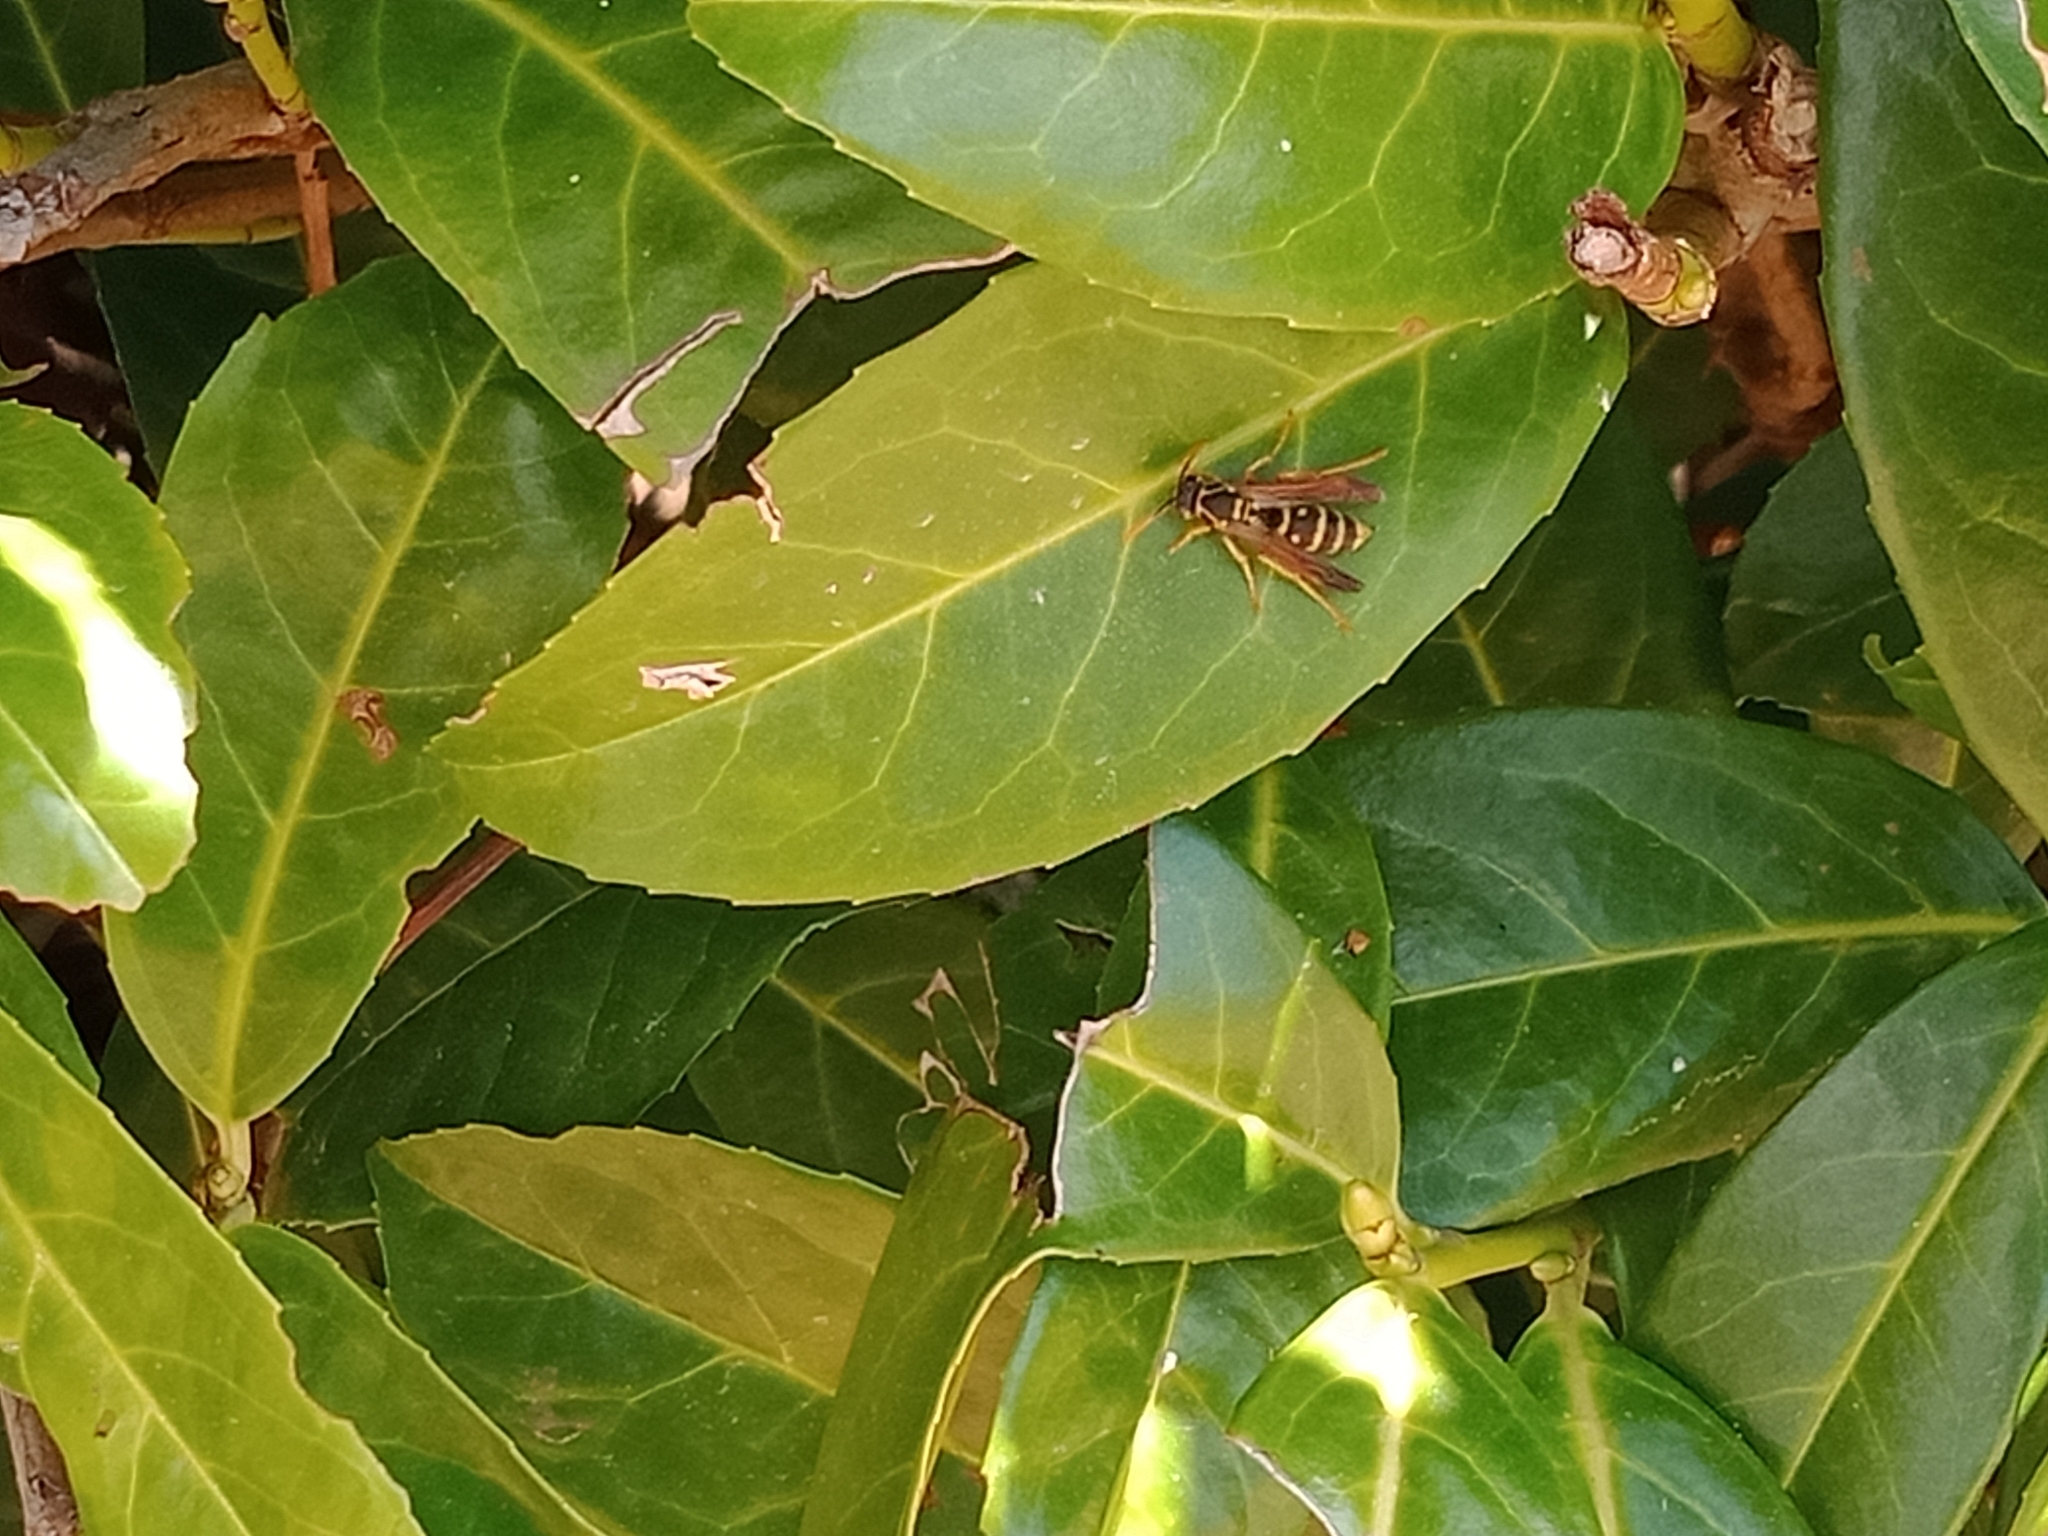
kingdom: Animalia
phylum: Arthropoda
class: Insecta
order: Hymenoptera
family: Eumenidae
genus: Polistes
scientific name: Polistes chinensis
